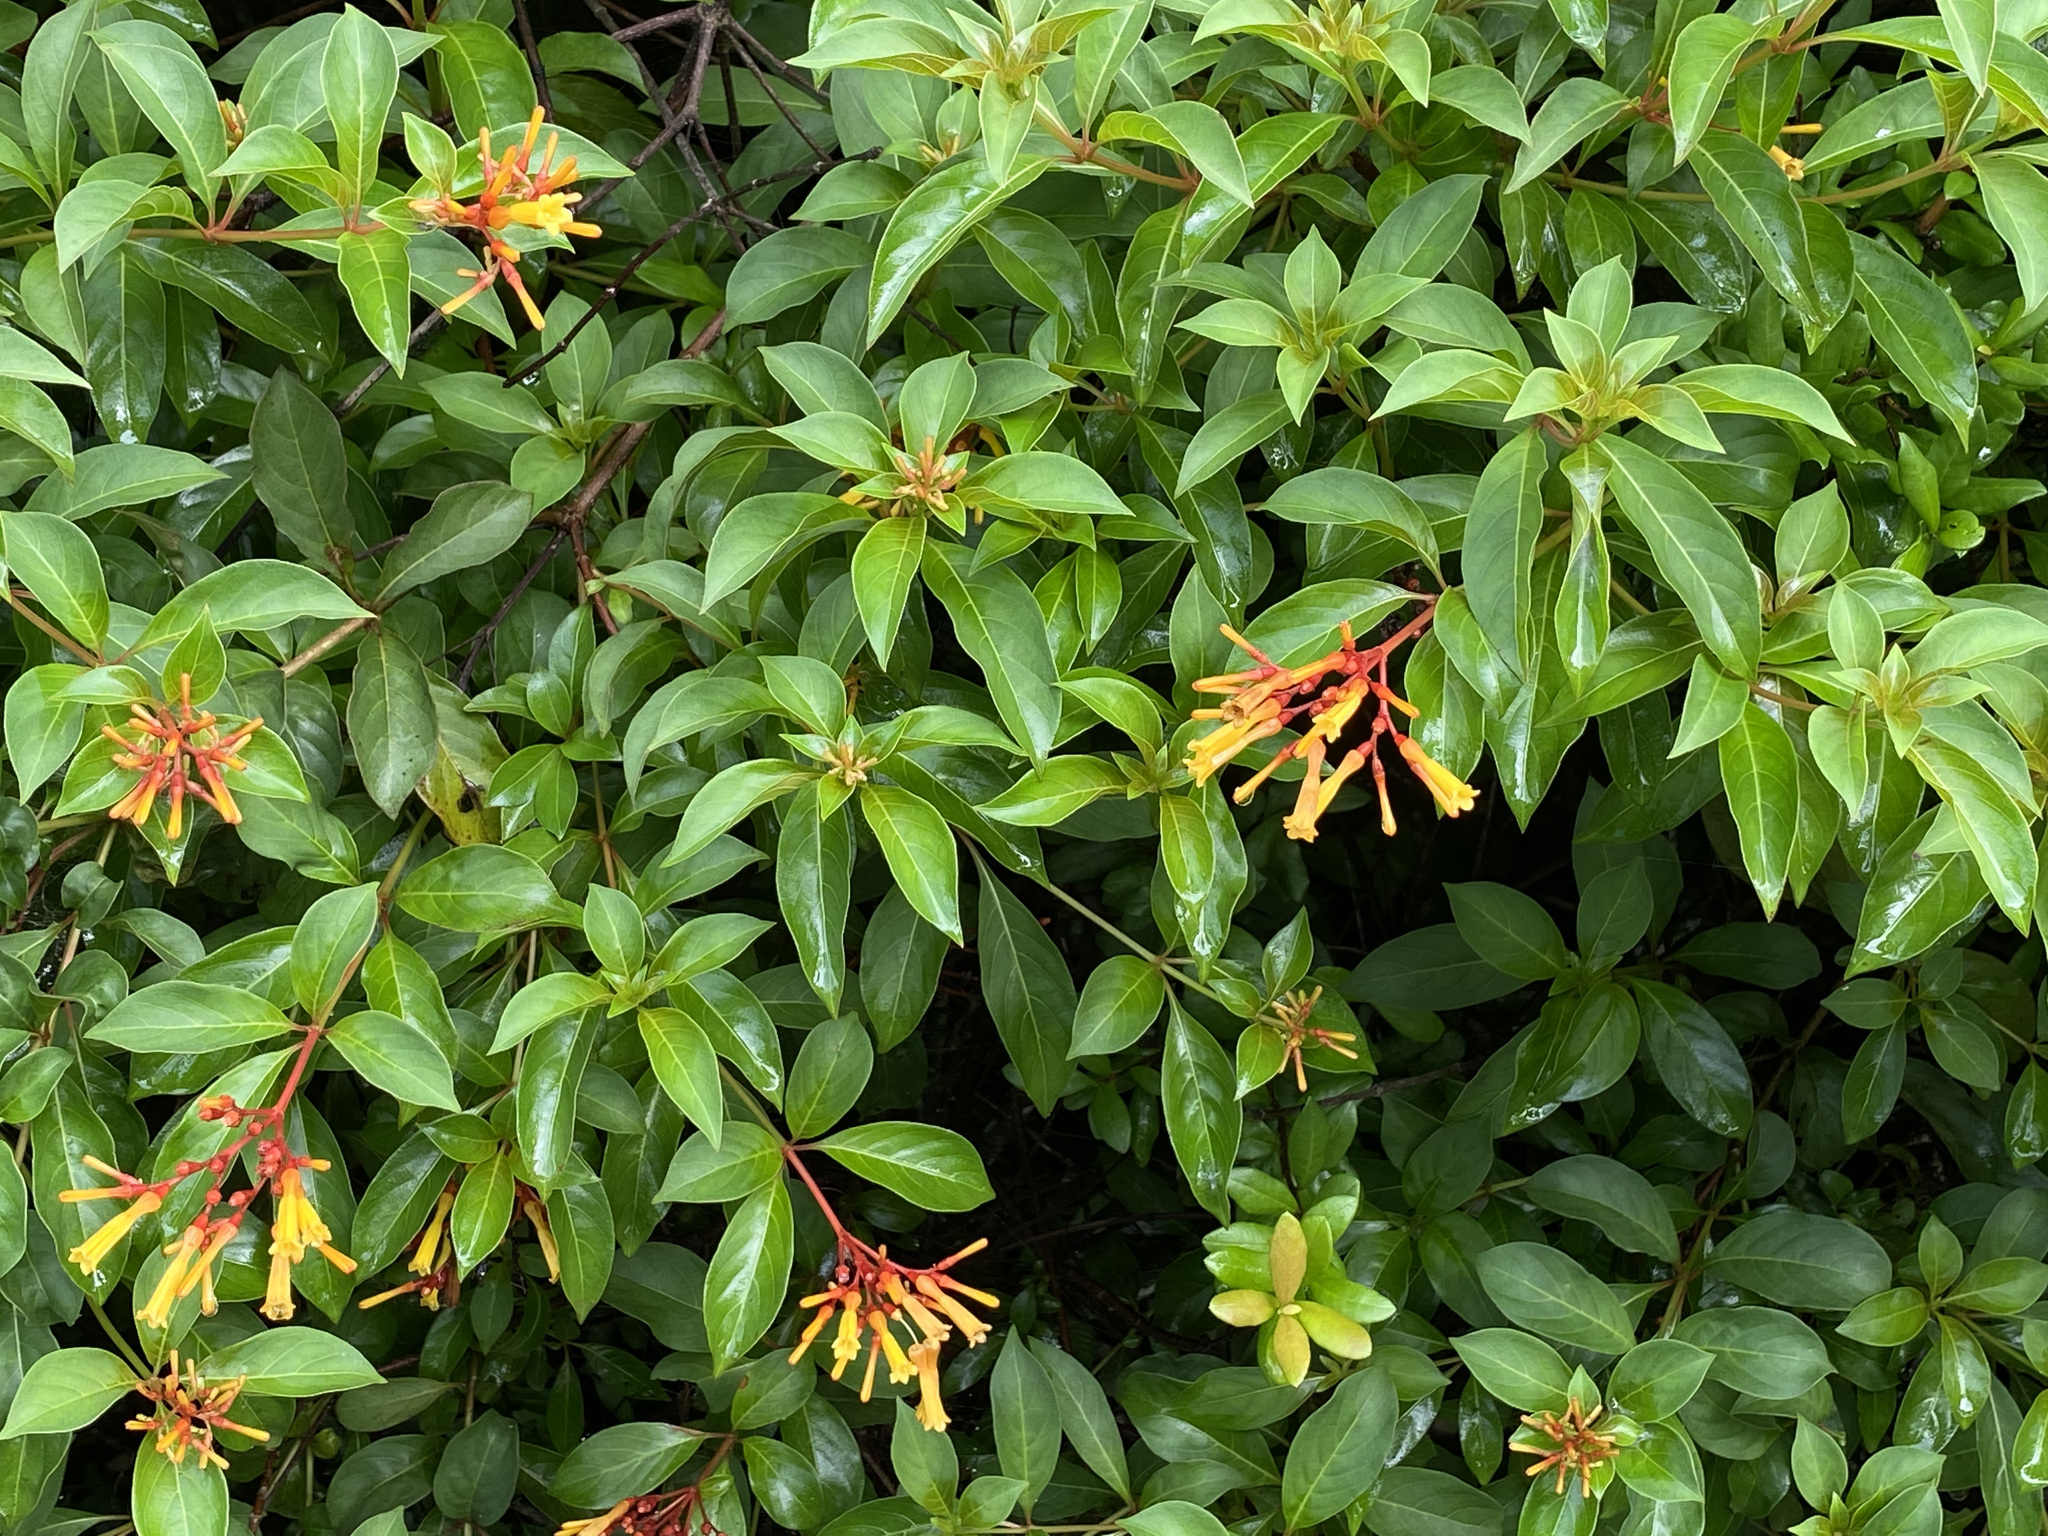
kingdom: Plantae
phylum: Tracheophyta
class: Magnoliopsida
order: Gentianales
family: Rubiaceae
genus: Hamelia
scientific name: Hamelia patens
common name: Redhead
